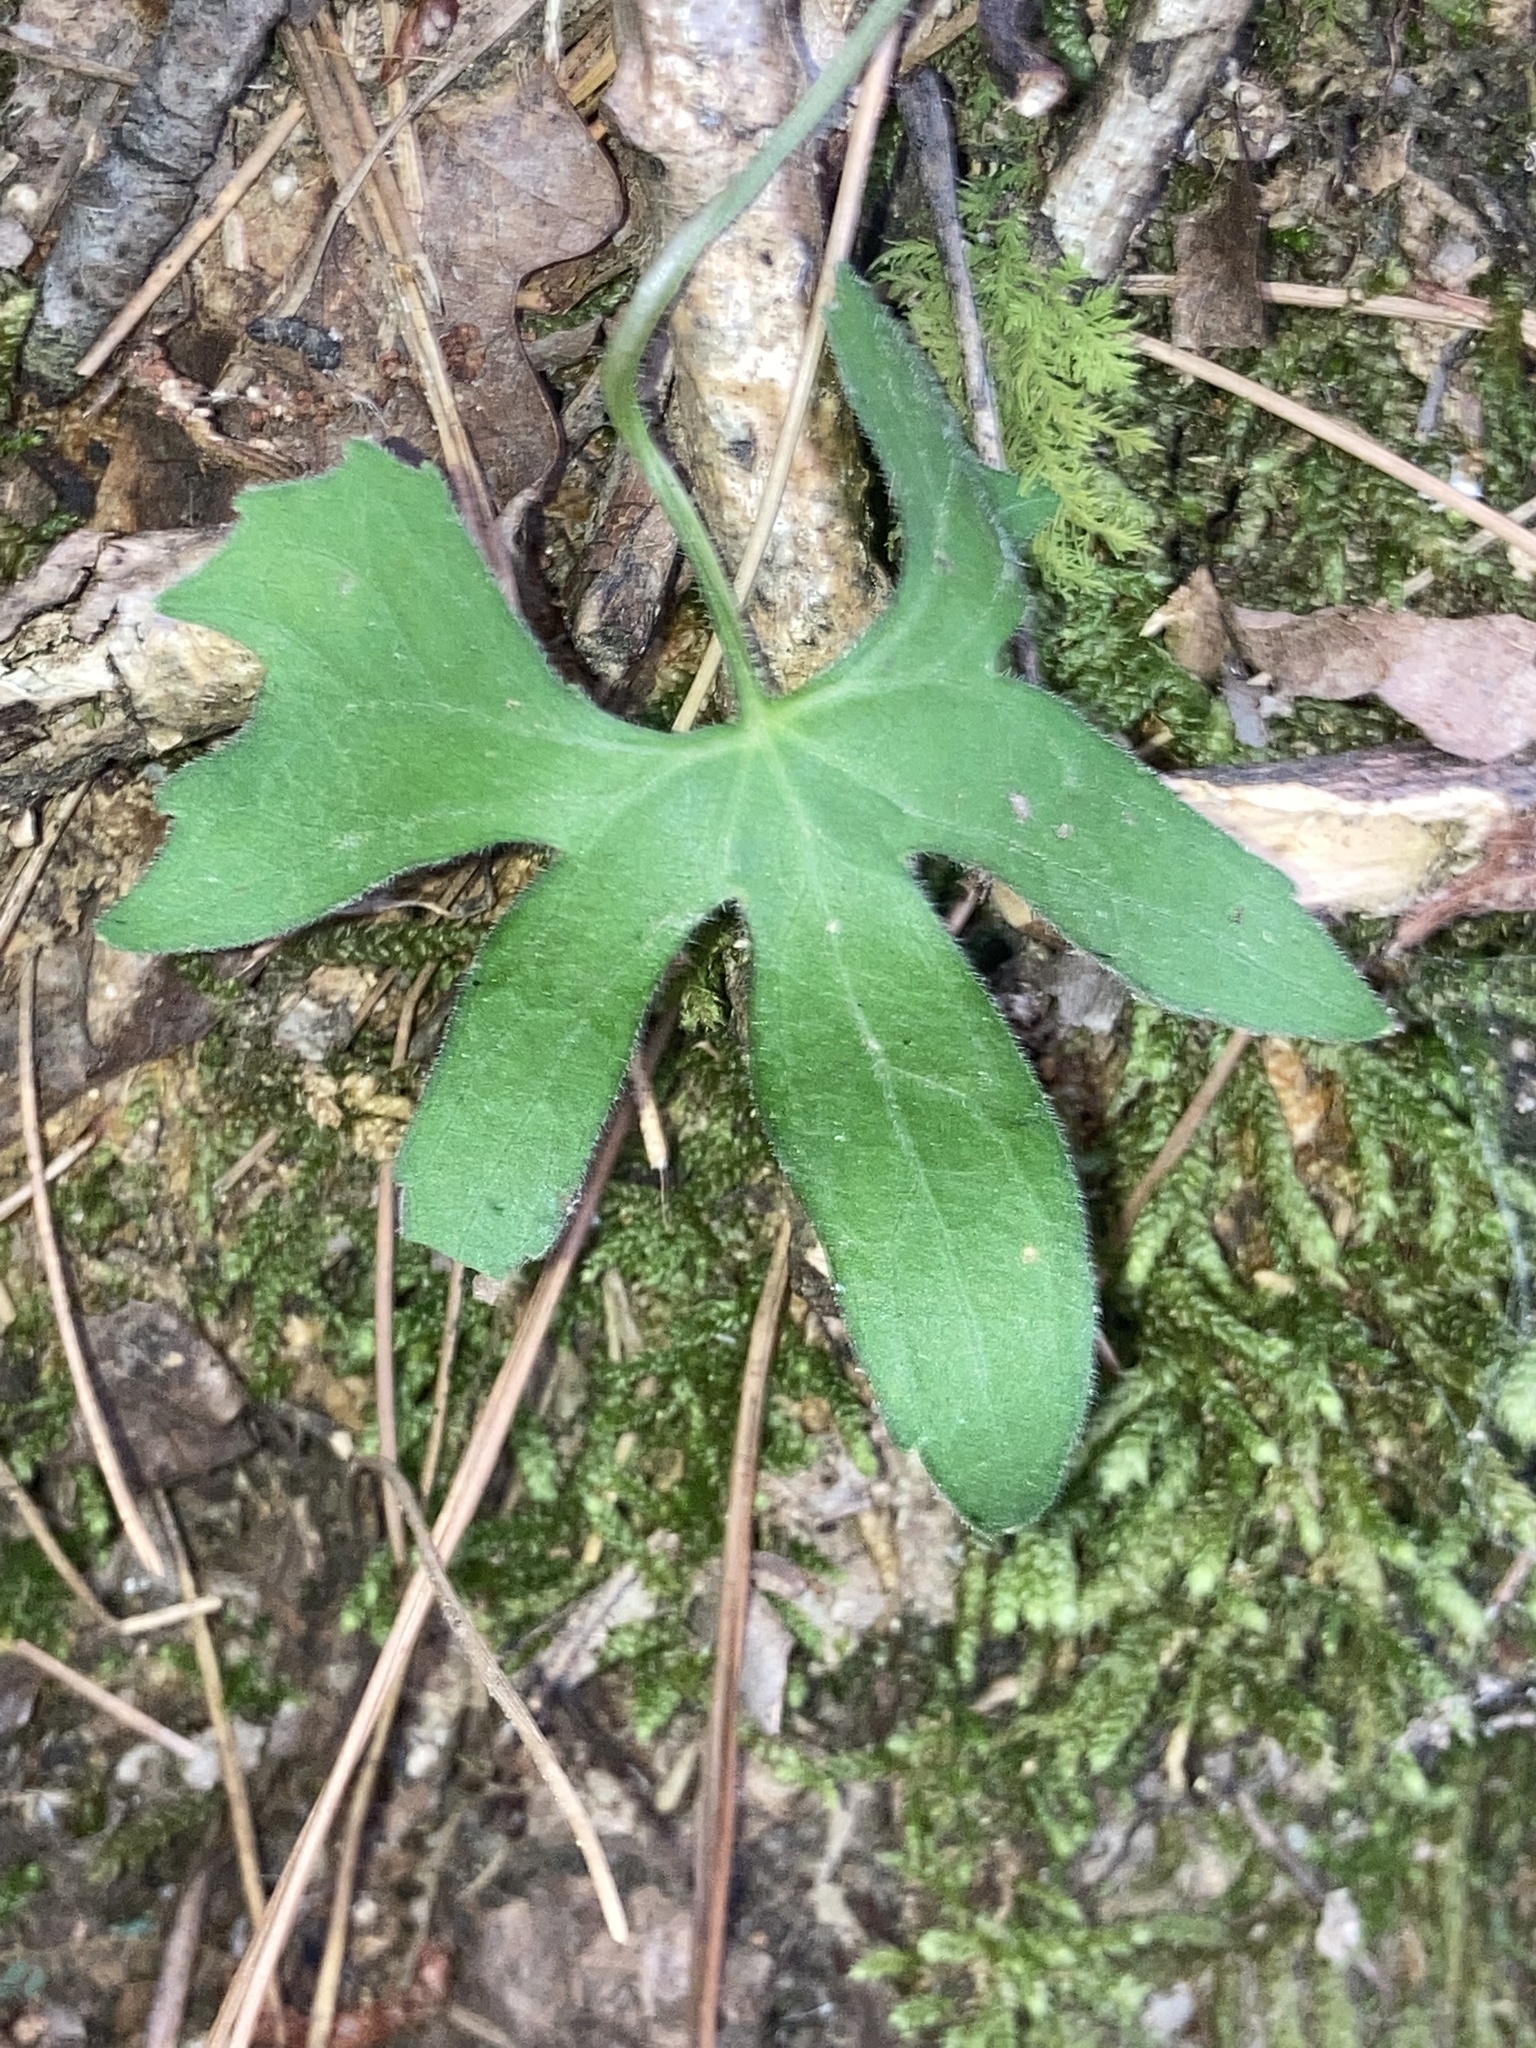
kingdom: Plantae
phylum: Tracheophyta
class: Magnoliopsida
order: Malpighiales
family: Violaceae
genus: Viola
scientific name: Viola palmata
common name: Early blue violet
